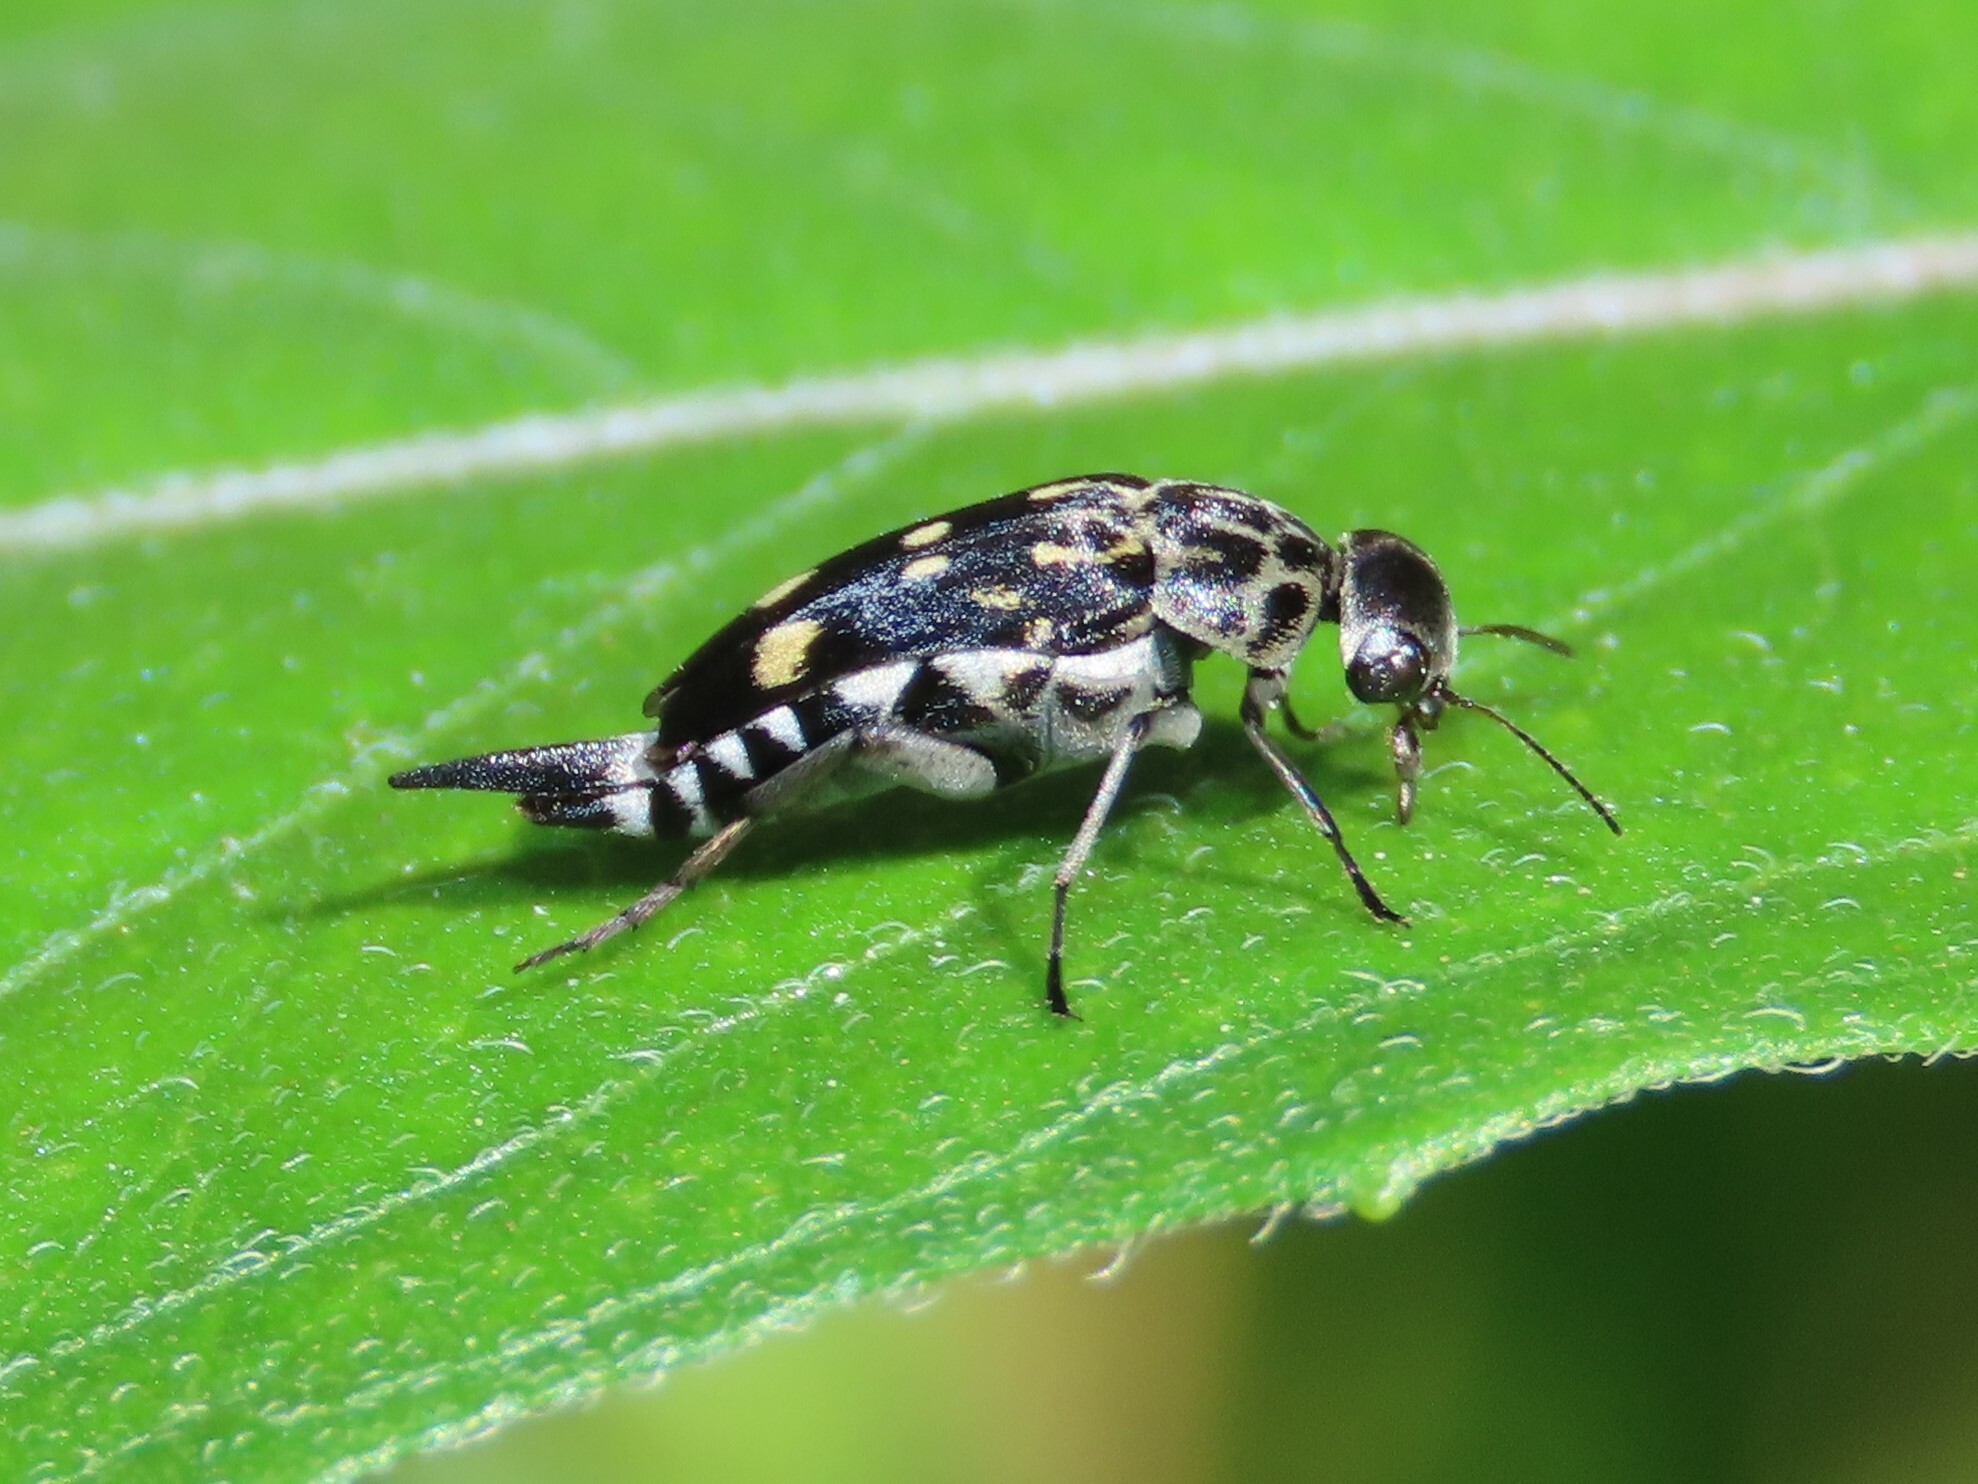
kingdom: Animalia
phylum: Arthropoda
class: Insecta
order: Coleoptera
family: Mordellidae
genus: Hoshihananomia
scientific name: Hoshihananomia octopunctata
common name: Eight-spotted tumbling flower beetle
